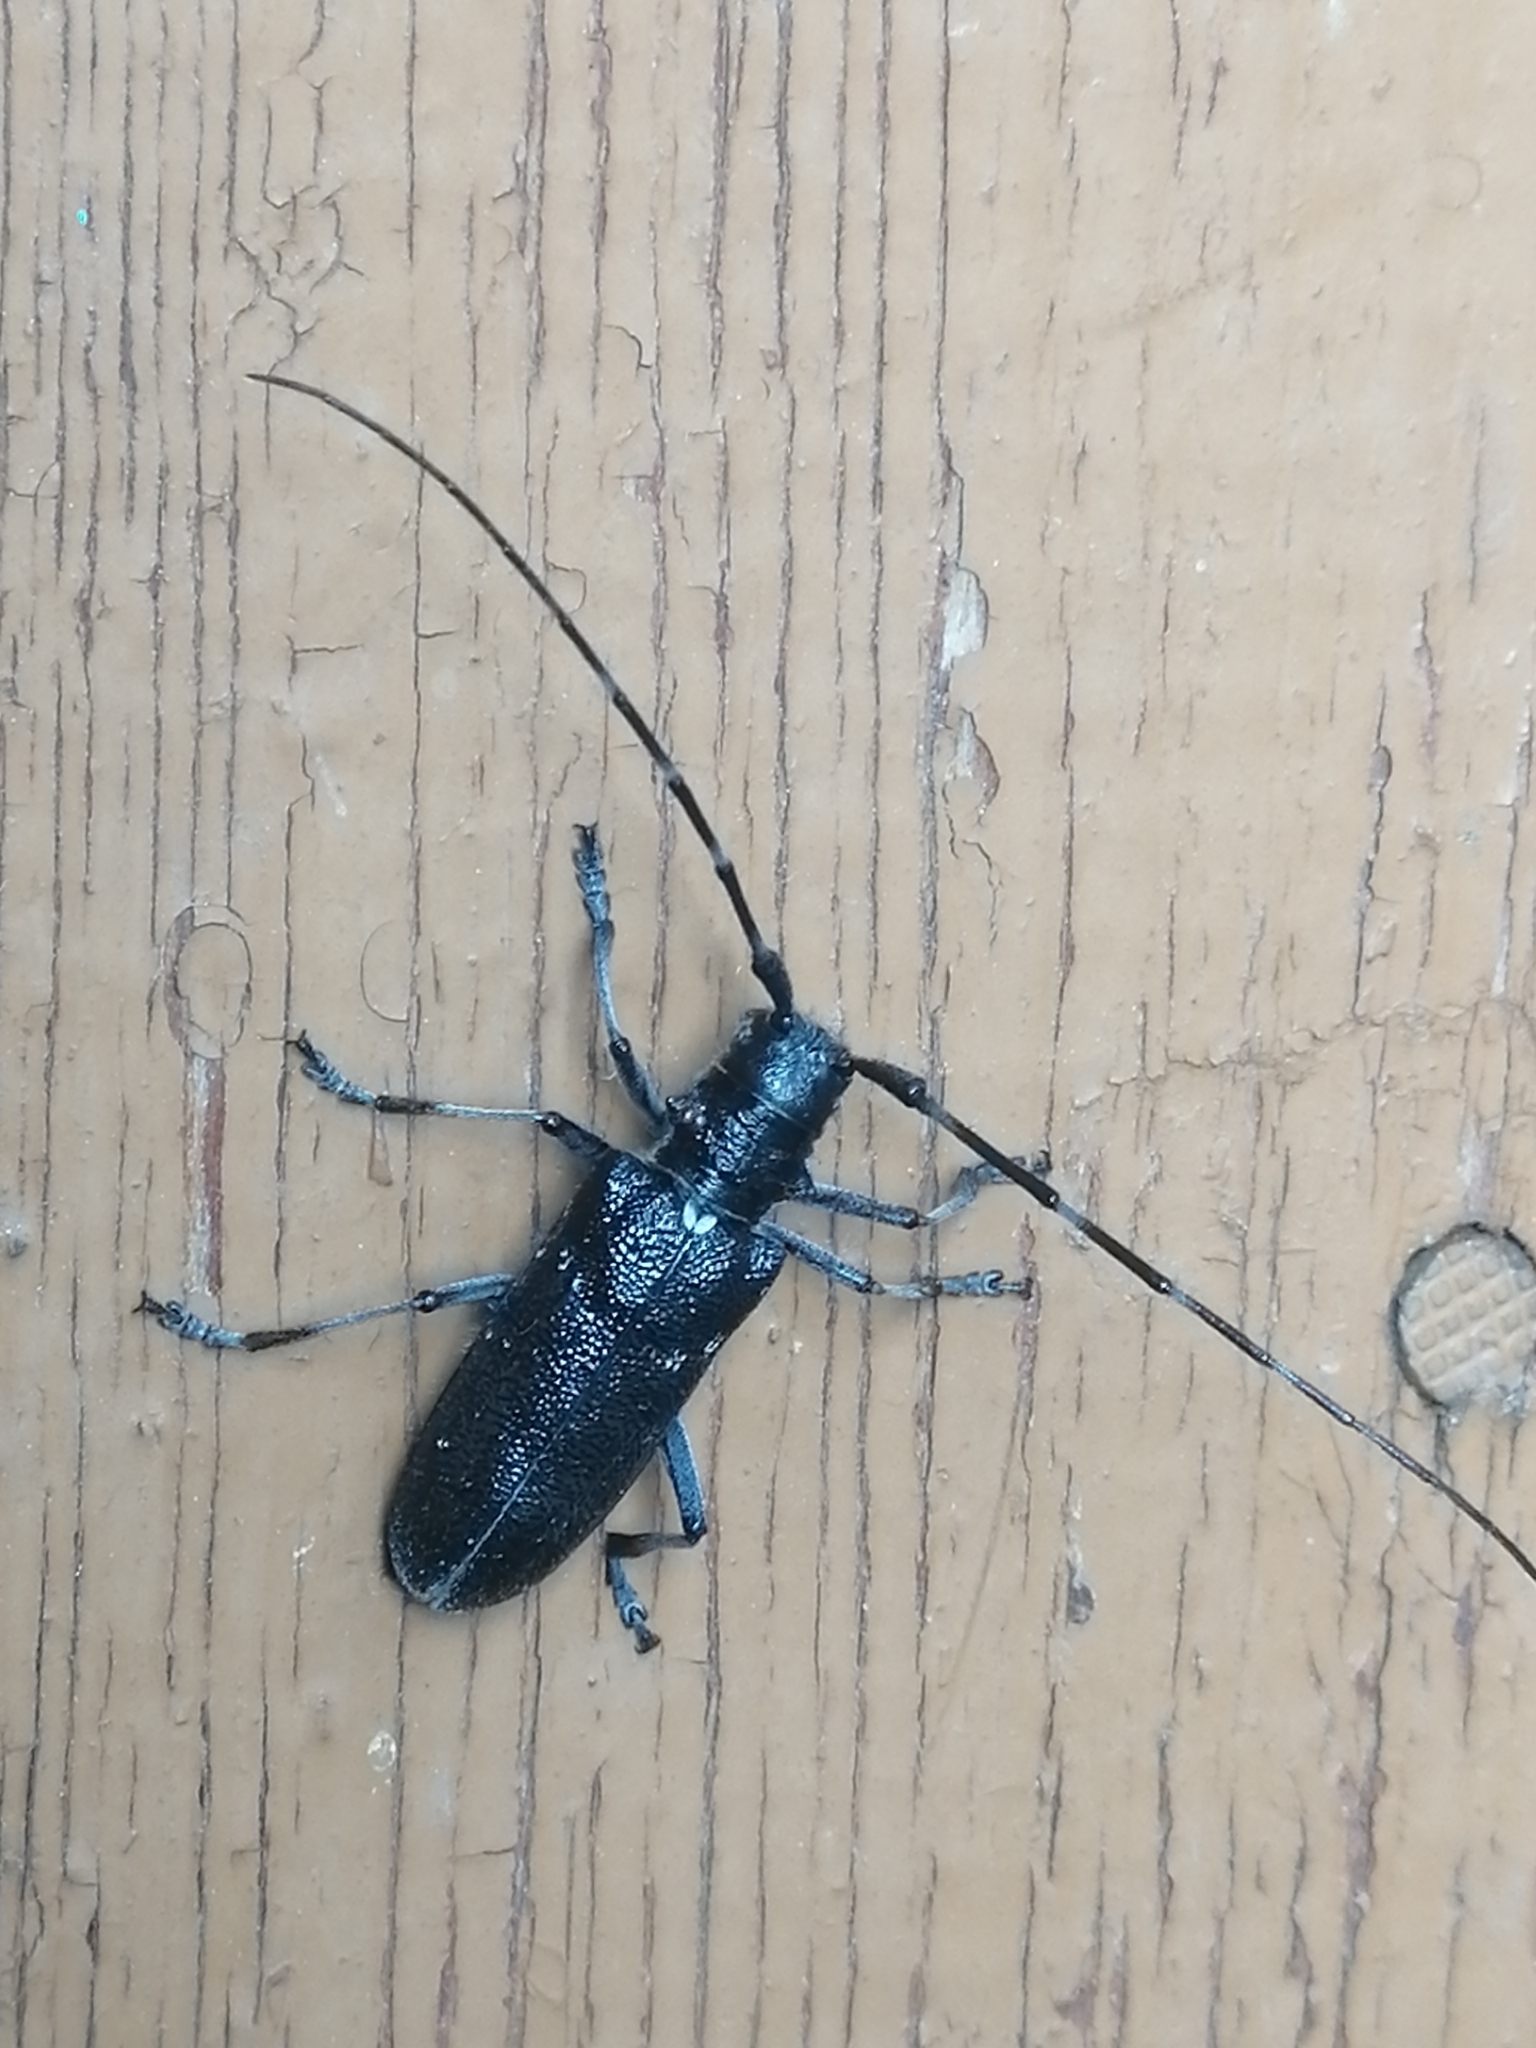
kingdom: Animalia
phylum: Arthropoda
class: Insecta
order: Coleoptera
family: Cerambycidae
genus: Monochamus
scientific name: Monochamus sutor
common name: Pine sawyer
